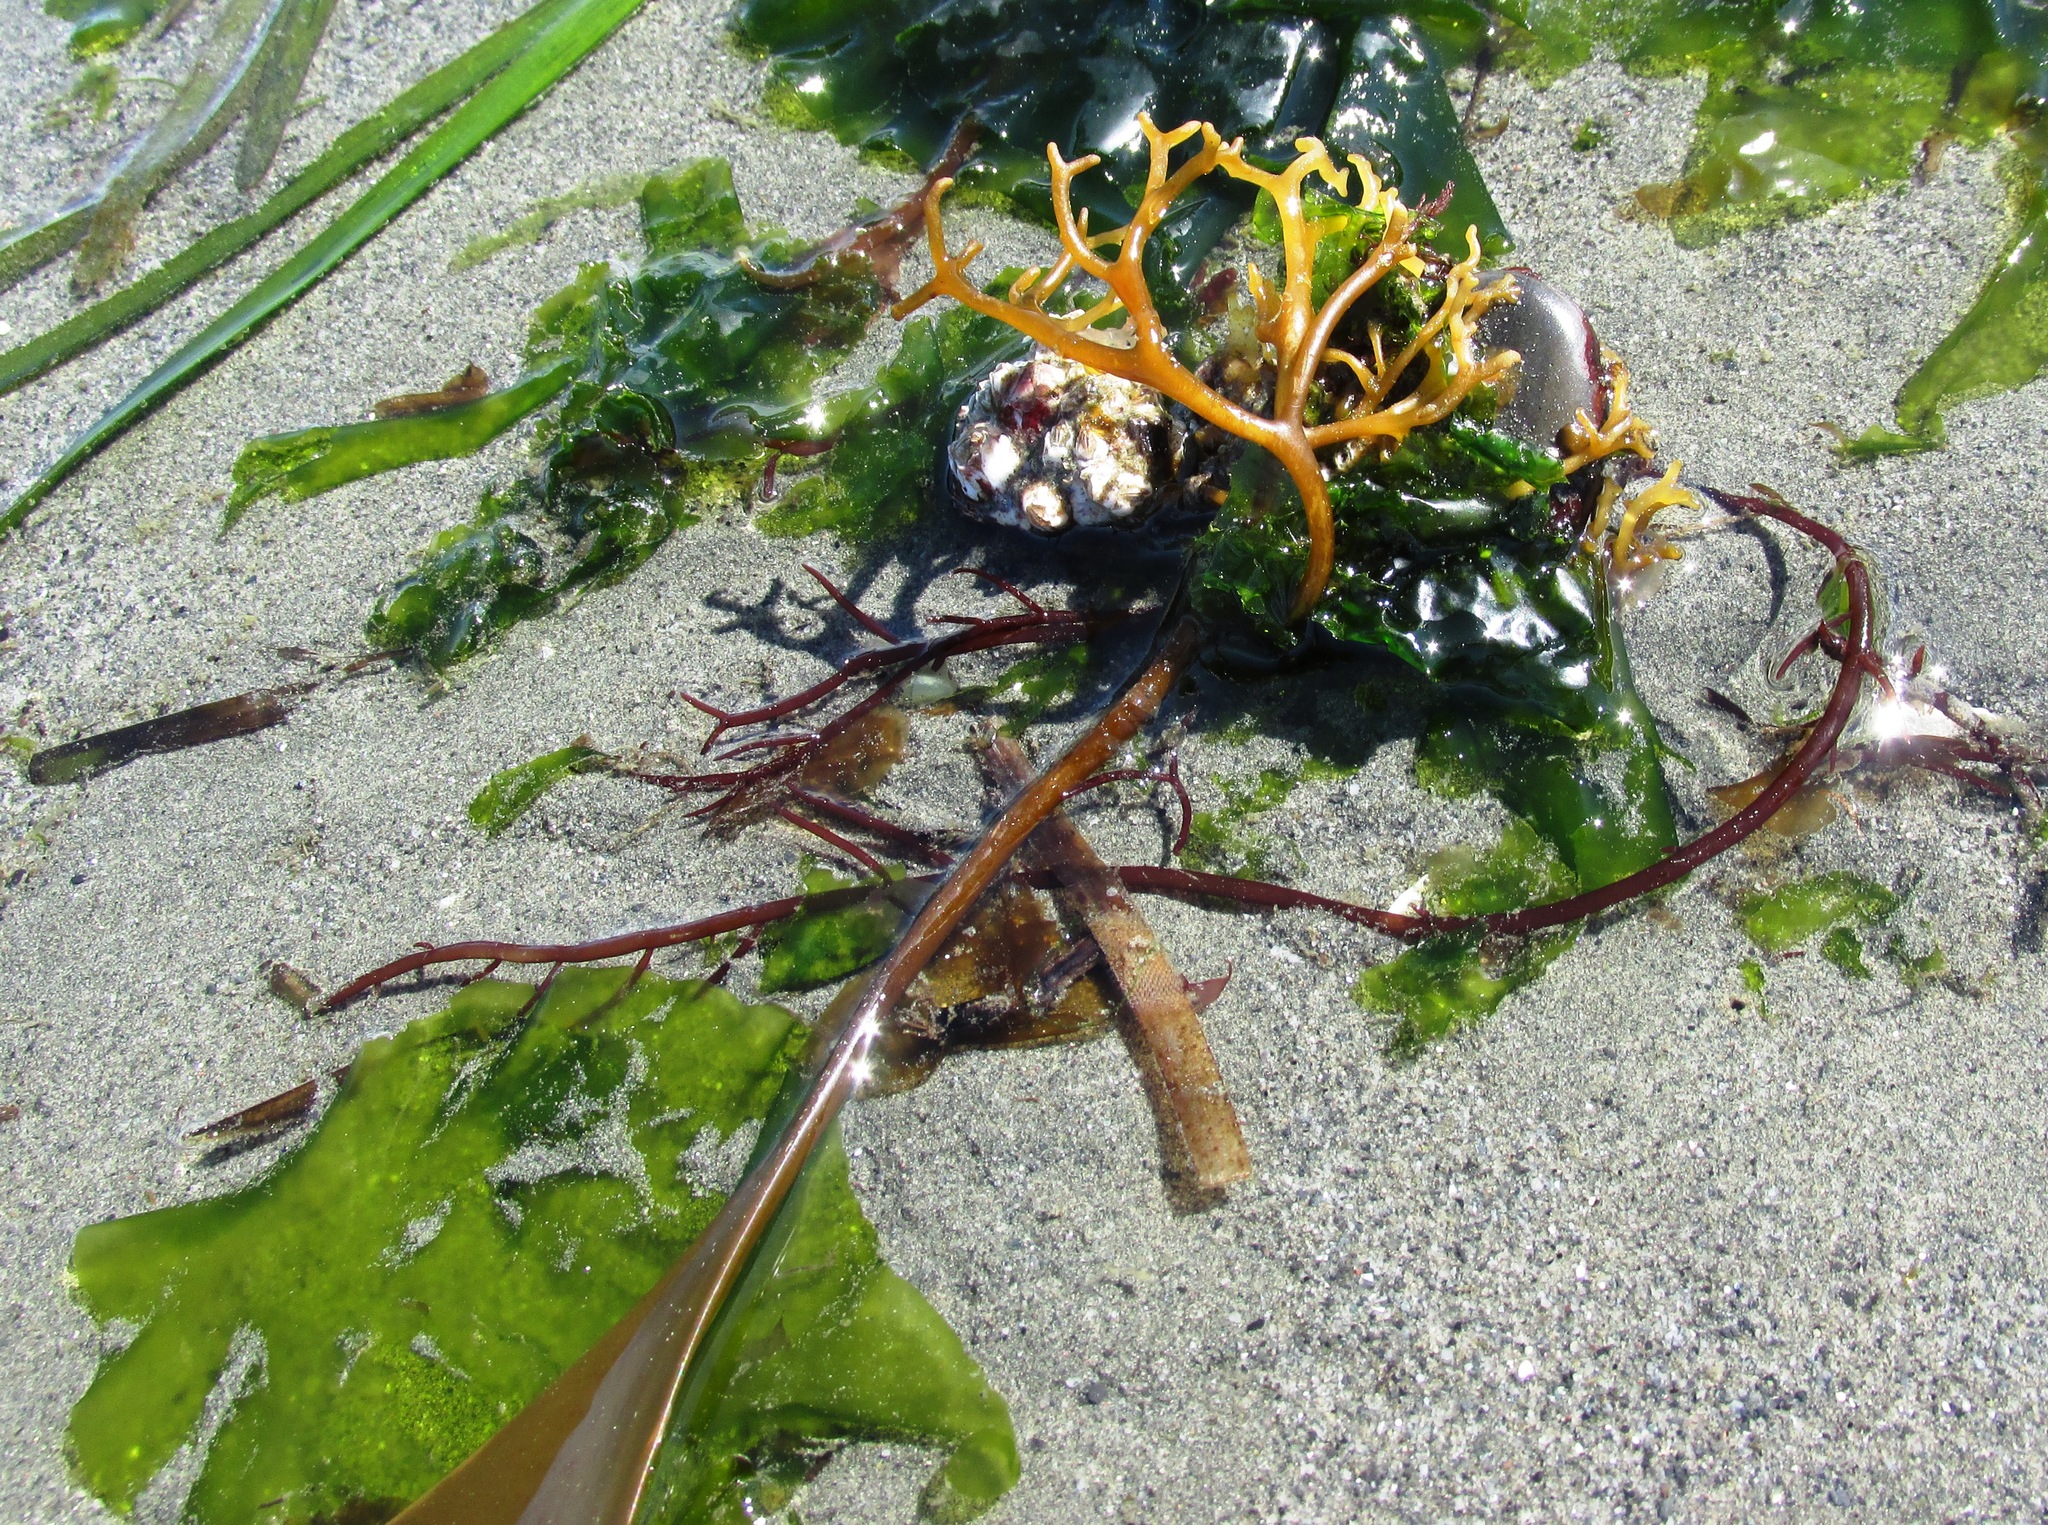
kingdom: Chromista
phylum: Ochrophyta
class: Phaeophyceae
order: Laminariales
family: Laminariaceae
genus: Saccharina
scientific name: Saccharina latissima
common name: Poor man's weather glass
